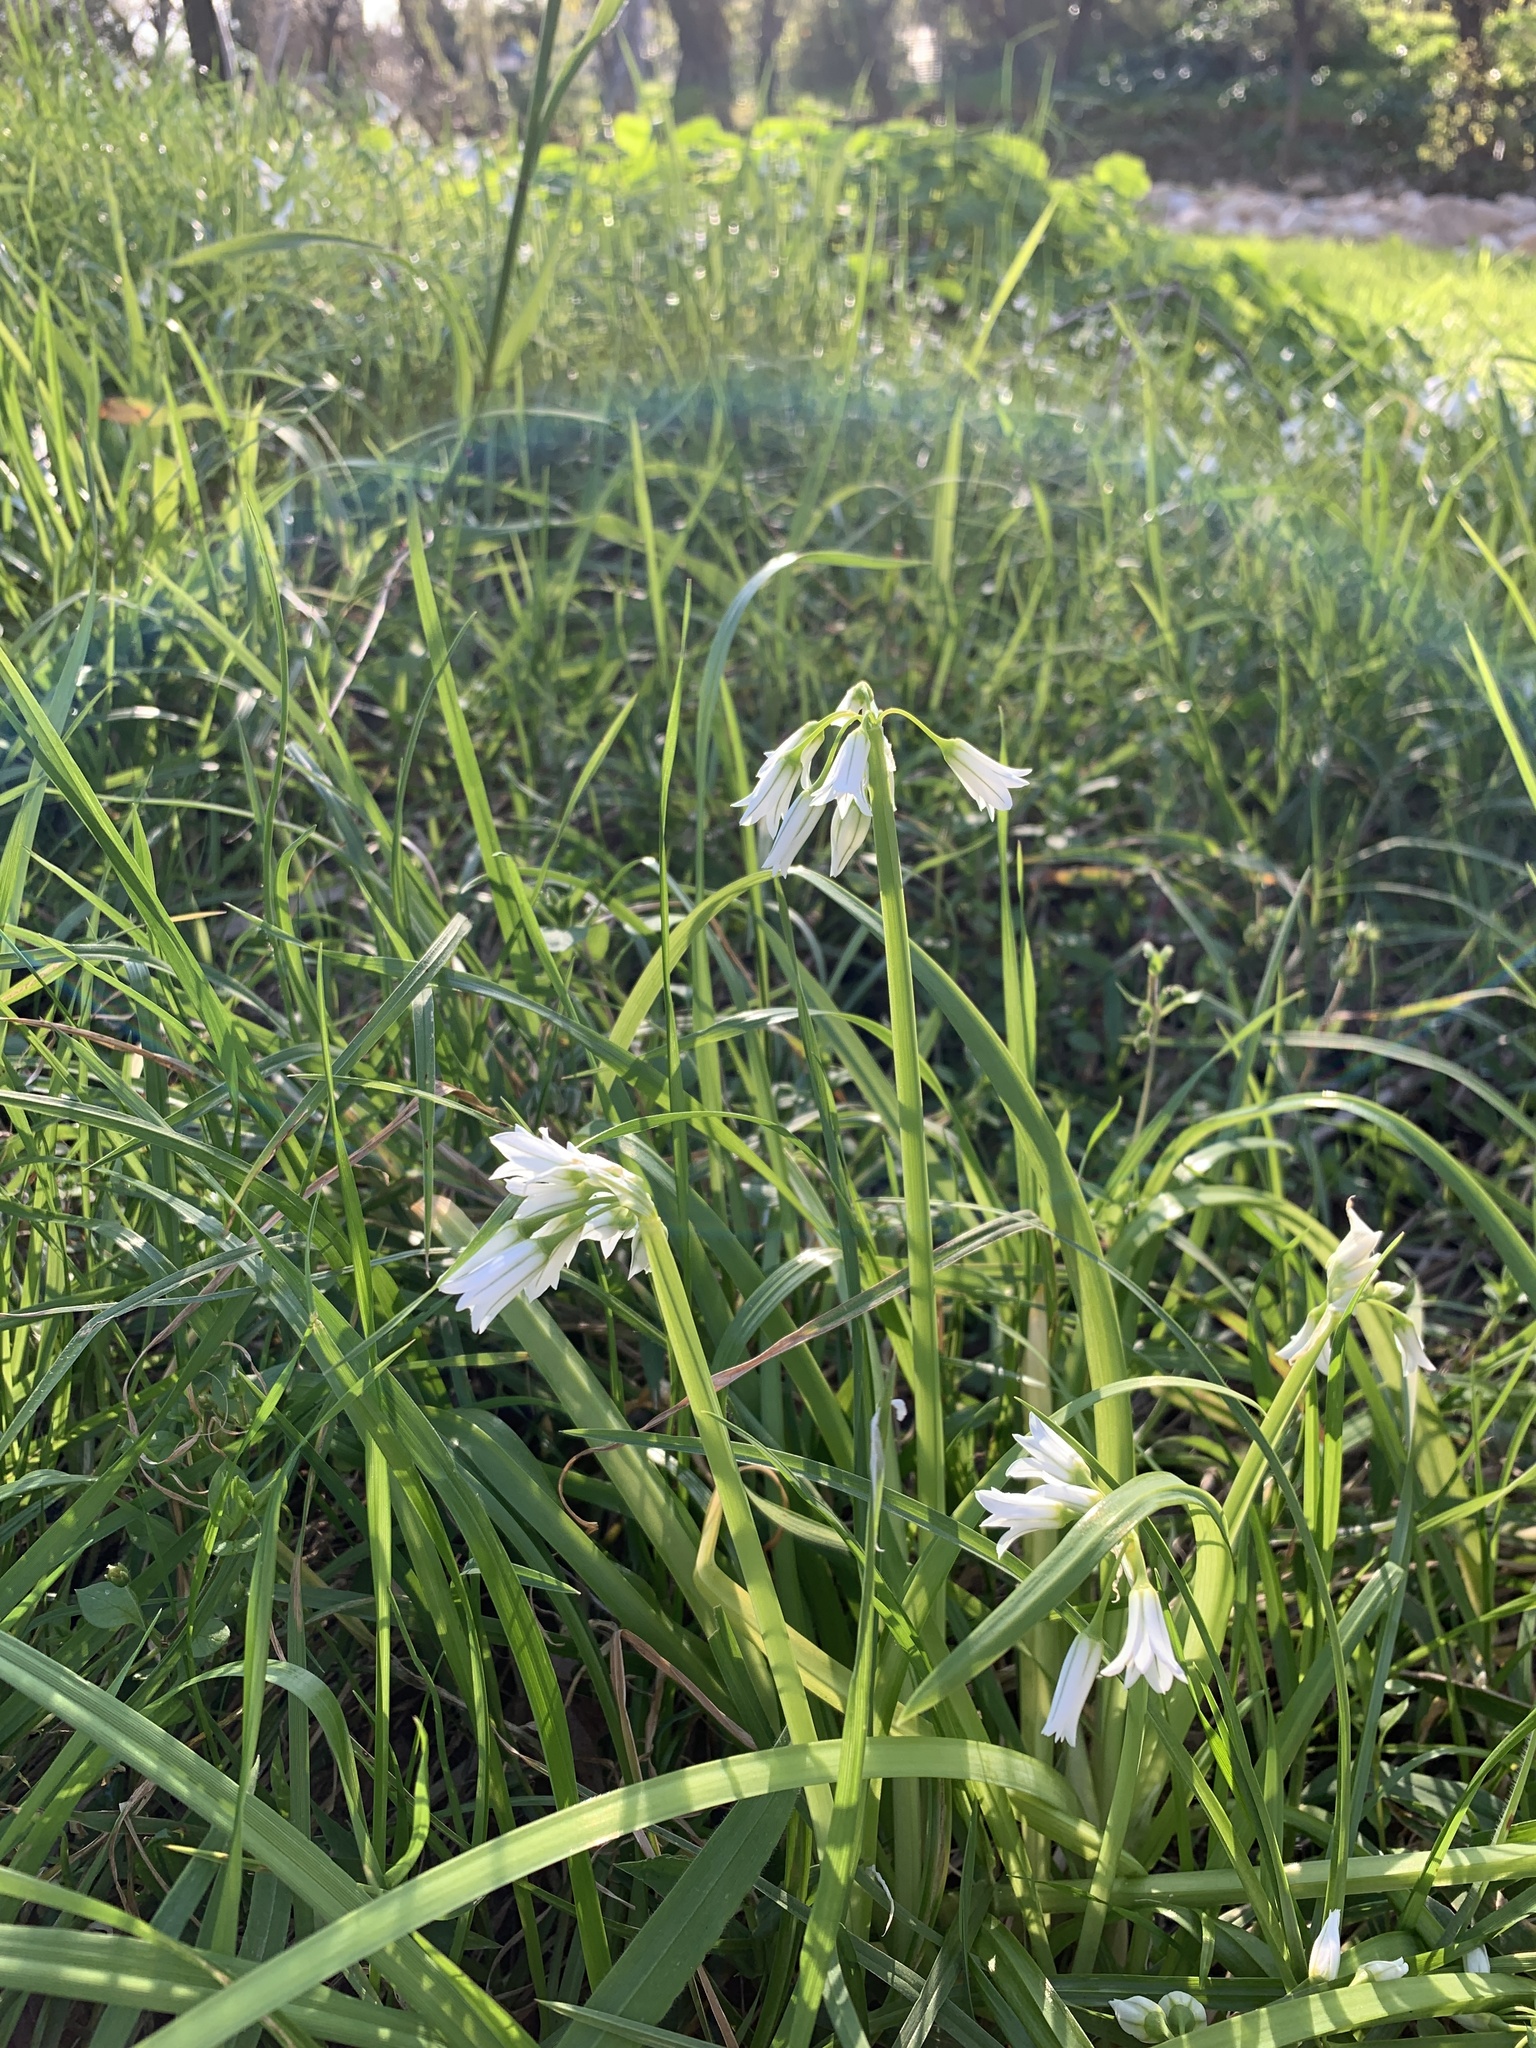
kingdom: Plantae
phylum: Tracheophyta
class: Liliopsida
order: Asparagales
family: Amaryllidaceae
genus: Allium
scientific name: Allium triquetrum
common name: Three-cornered garlic
